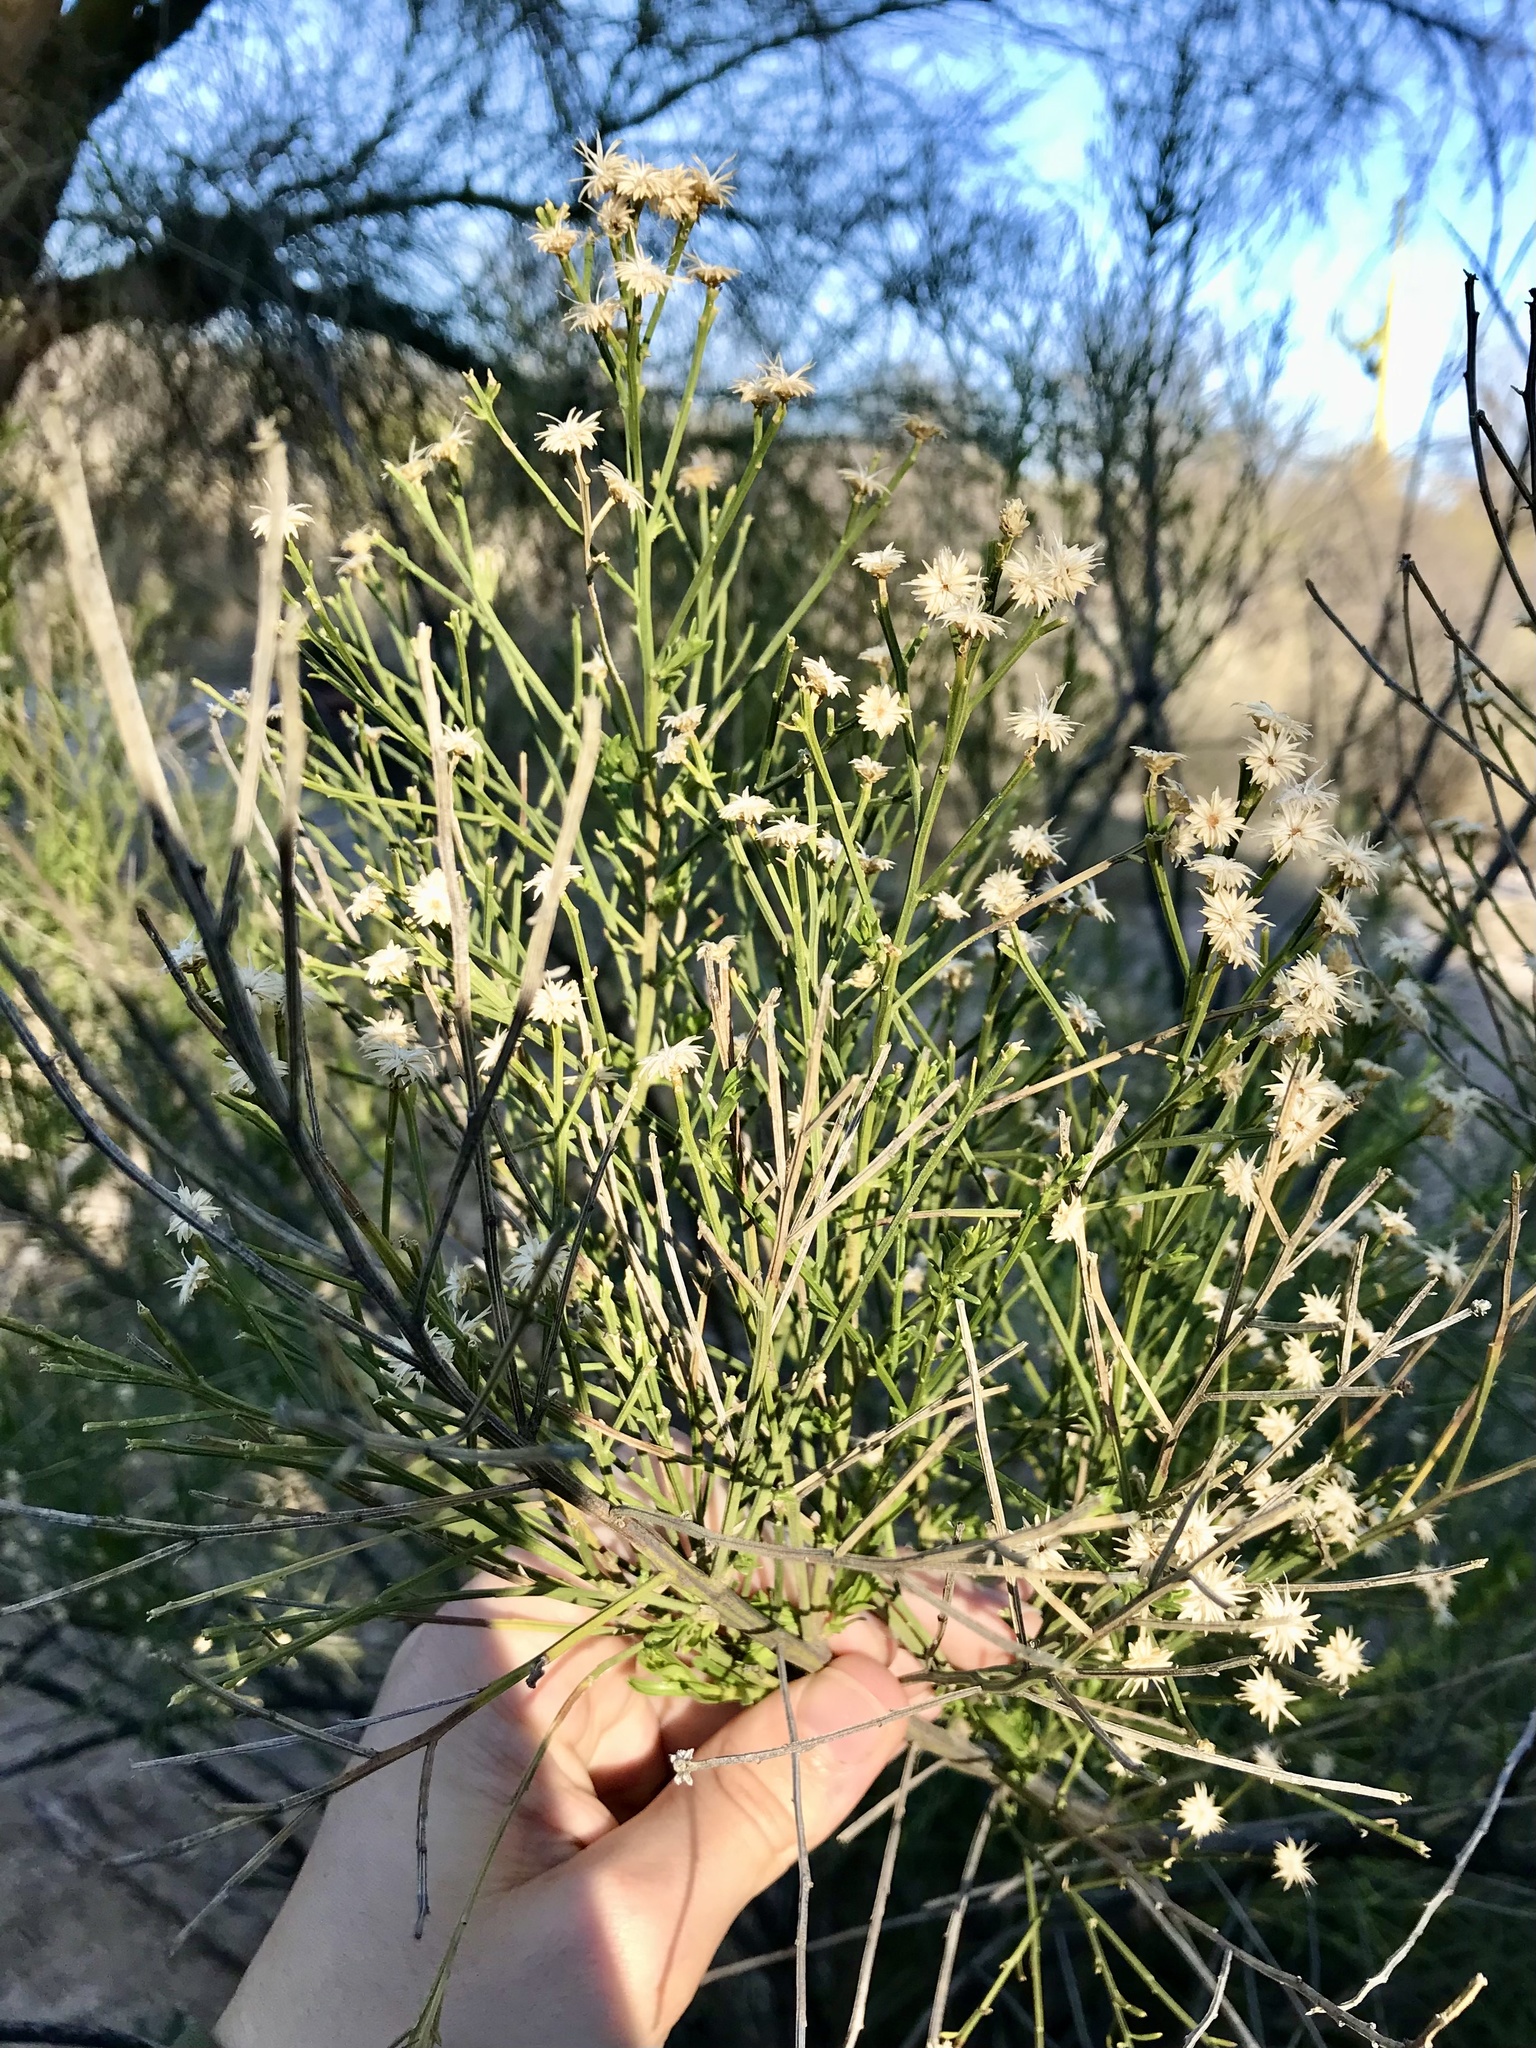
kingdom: Plantae
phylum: Tracheophyta
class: Magnoliopsida
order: Asterales
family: Asteraceae
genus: Baccharis
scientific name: Baccharis sarothroides
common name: Desert-broom
